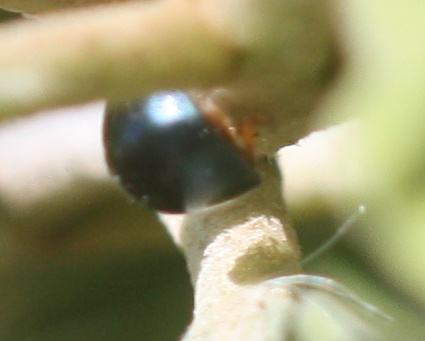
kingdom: Animalia
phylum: Arthropoda
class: Insecta
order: Coleoptera
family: Coccinellidae
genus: Curinus
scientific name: Curinus coeruleus
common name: Ladybird beetle
